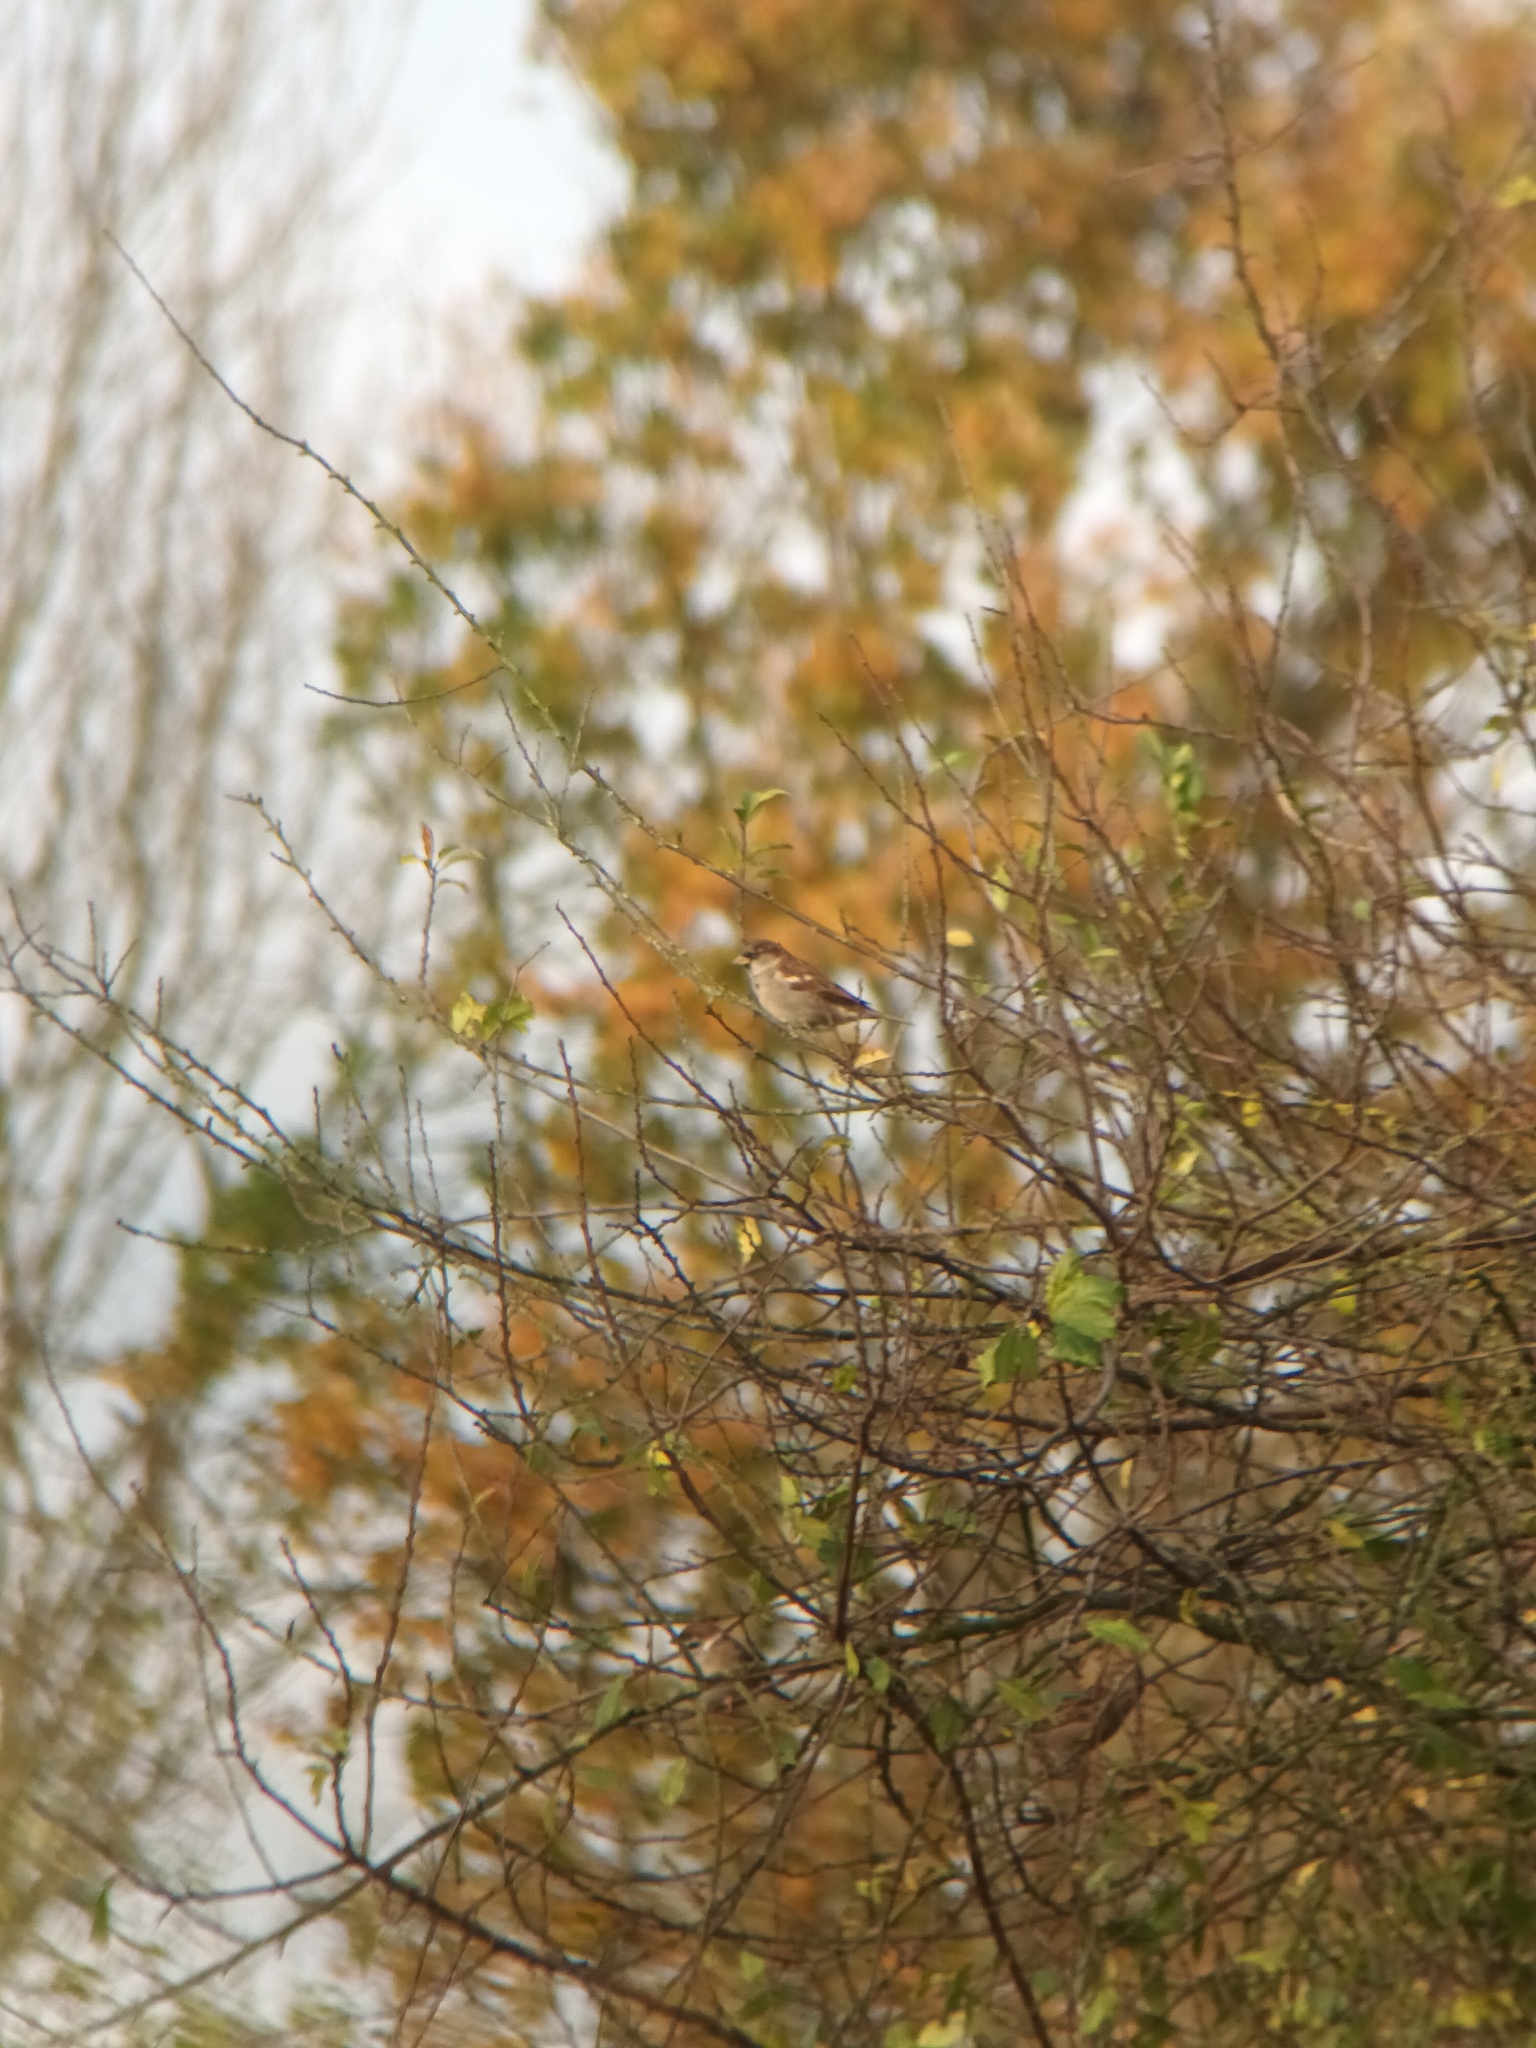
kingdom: Animalia
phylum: Chordata
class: Aves
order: Passeriformes
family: Passeridae
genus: Passer
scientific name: Passer domesticus
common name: House sparrow
